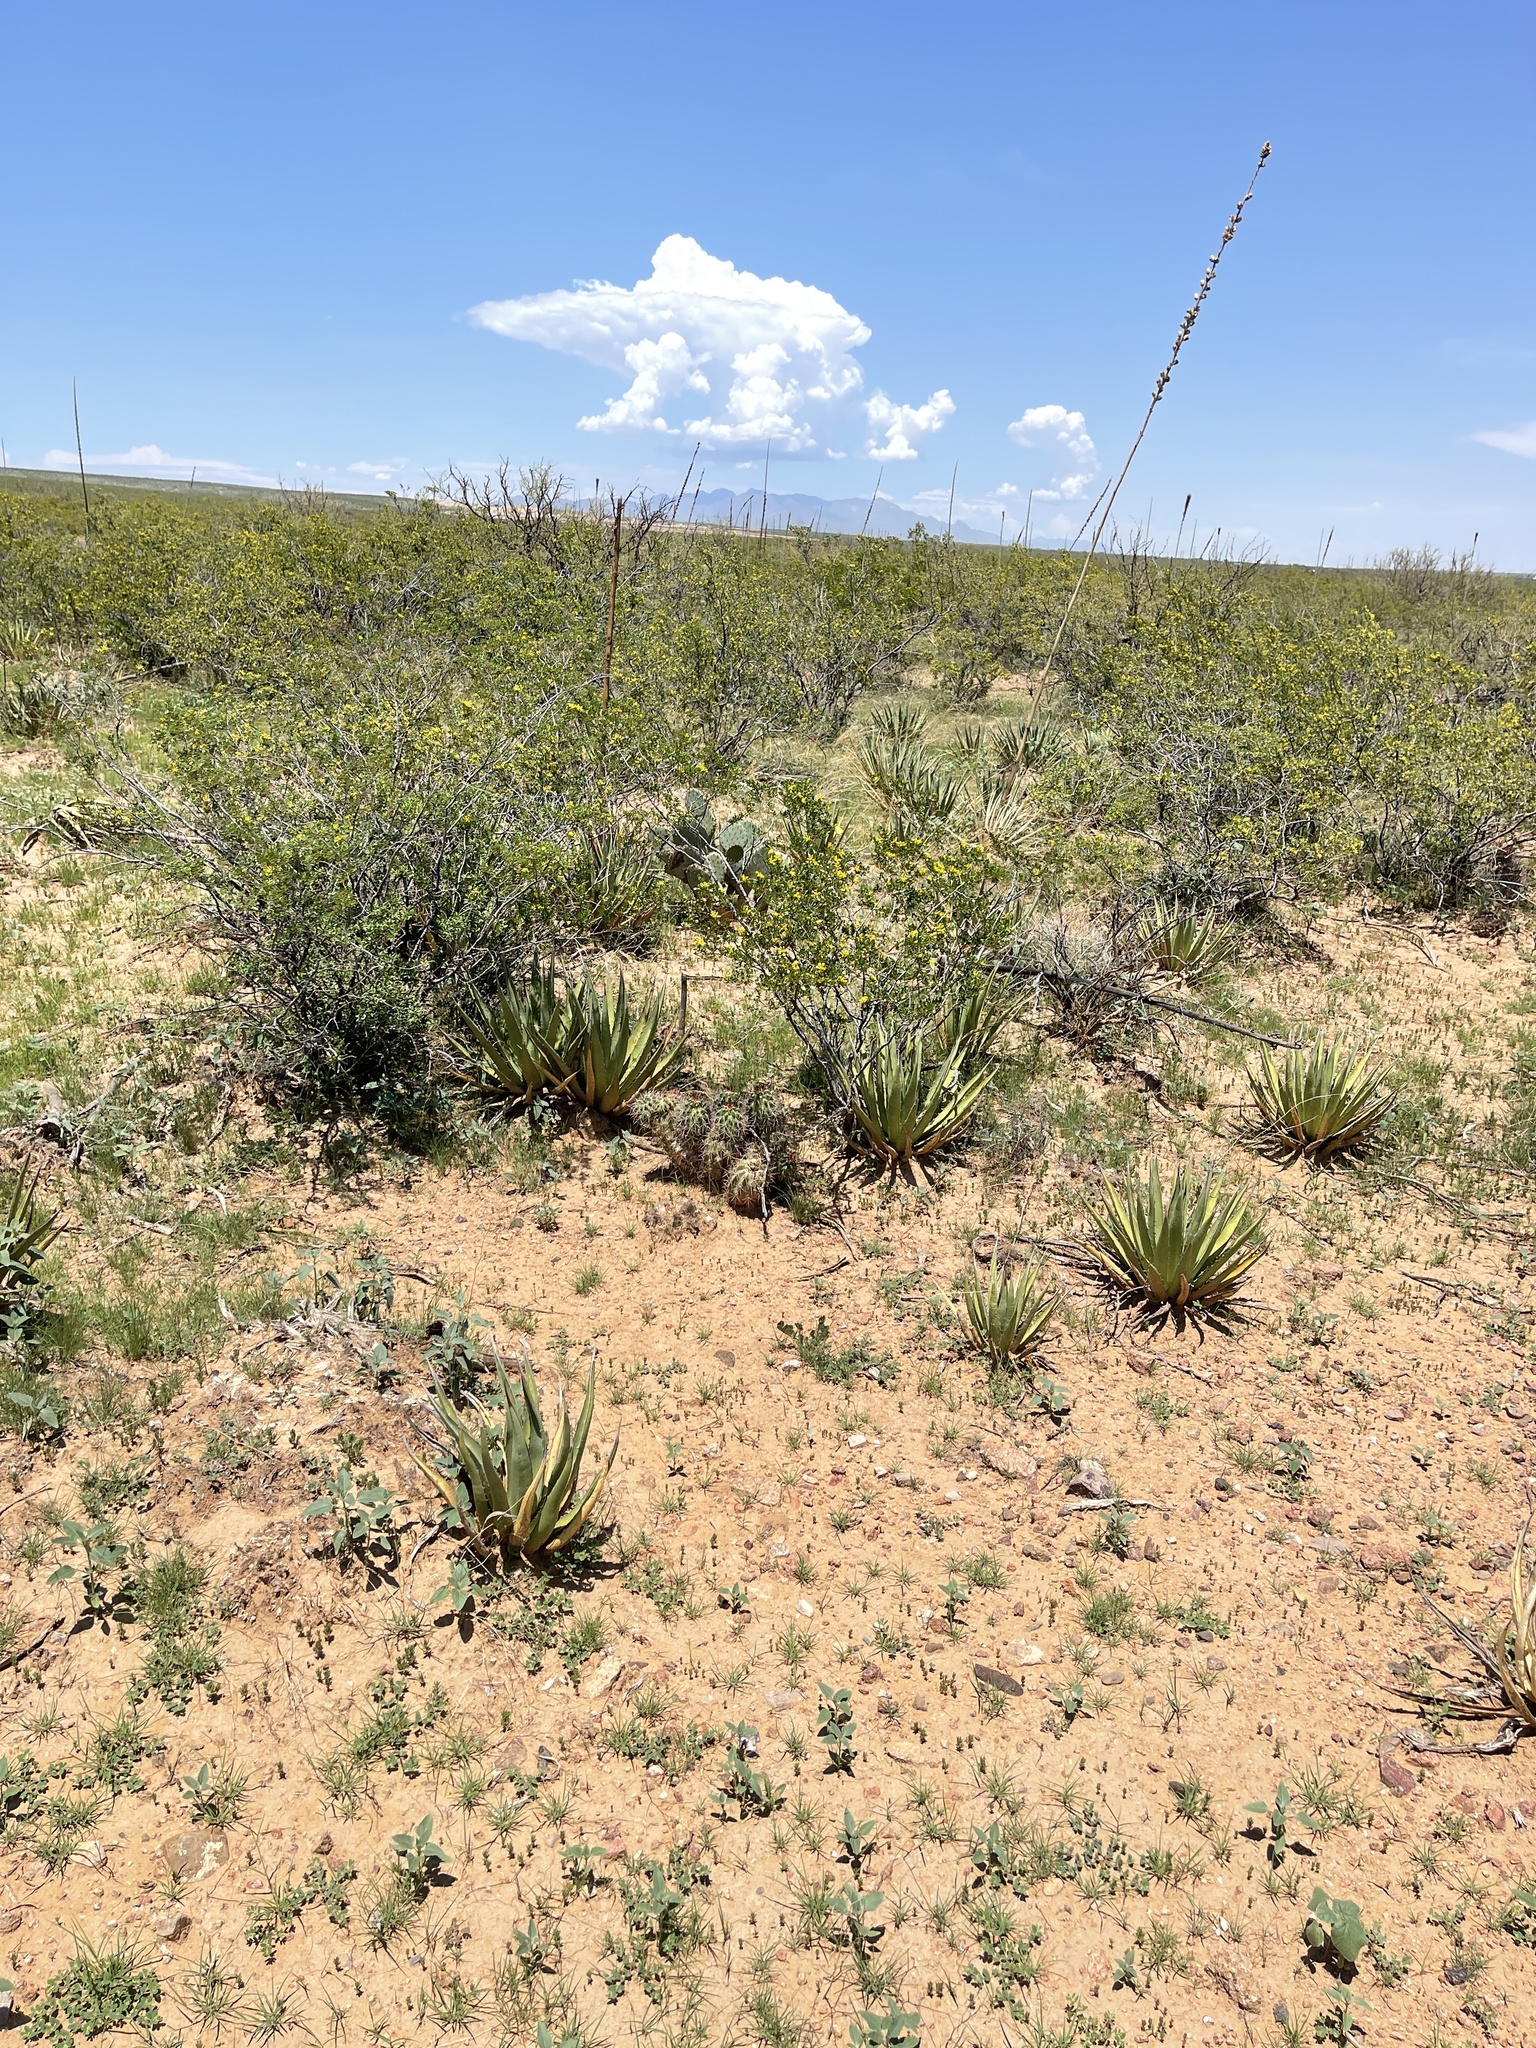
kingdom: Plantae
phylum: Tracheophyta
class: Liliopsida
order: Asparagales
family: Asparagaceae
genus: Agave
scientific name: Agave lechuguilla
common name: Lecheguilla agave
